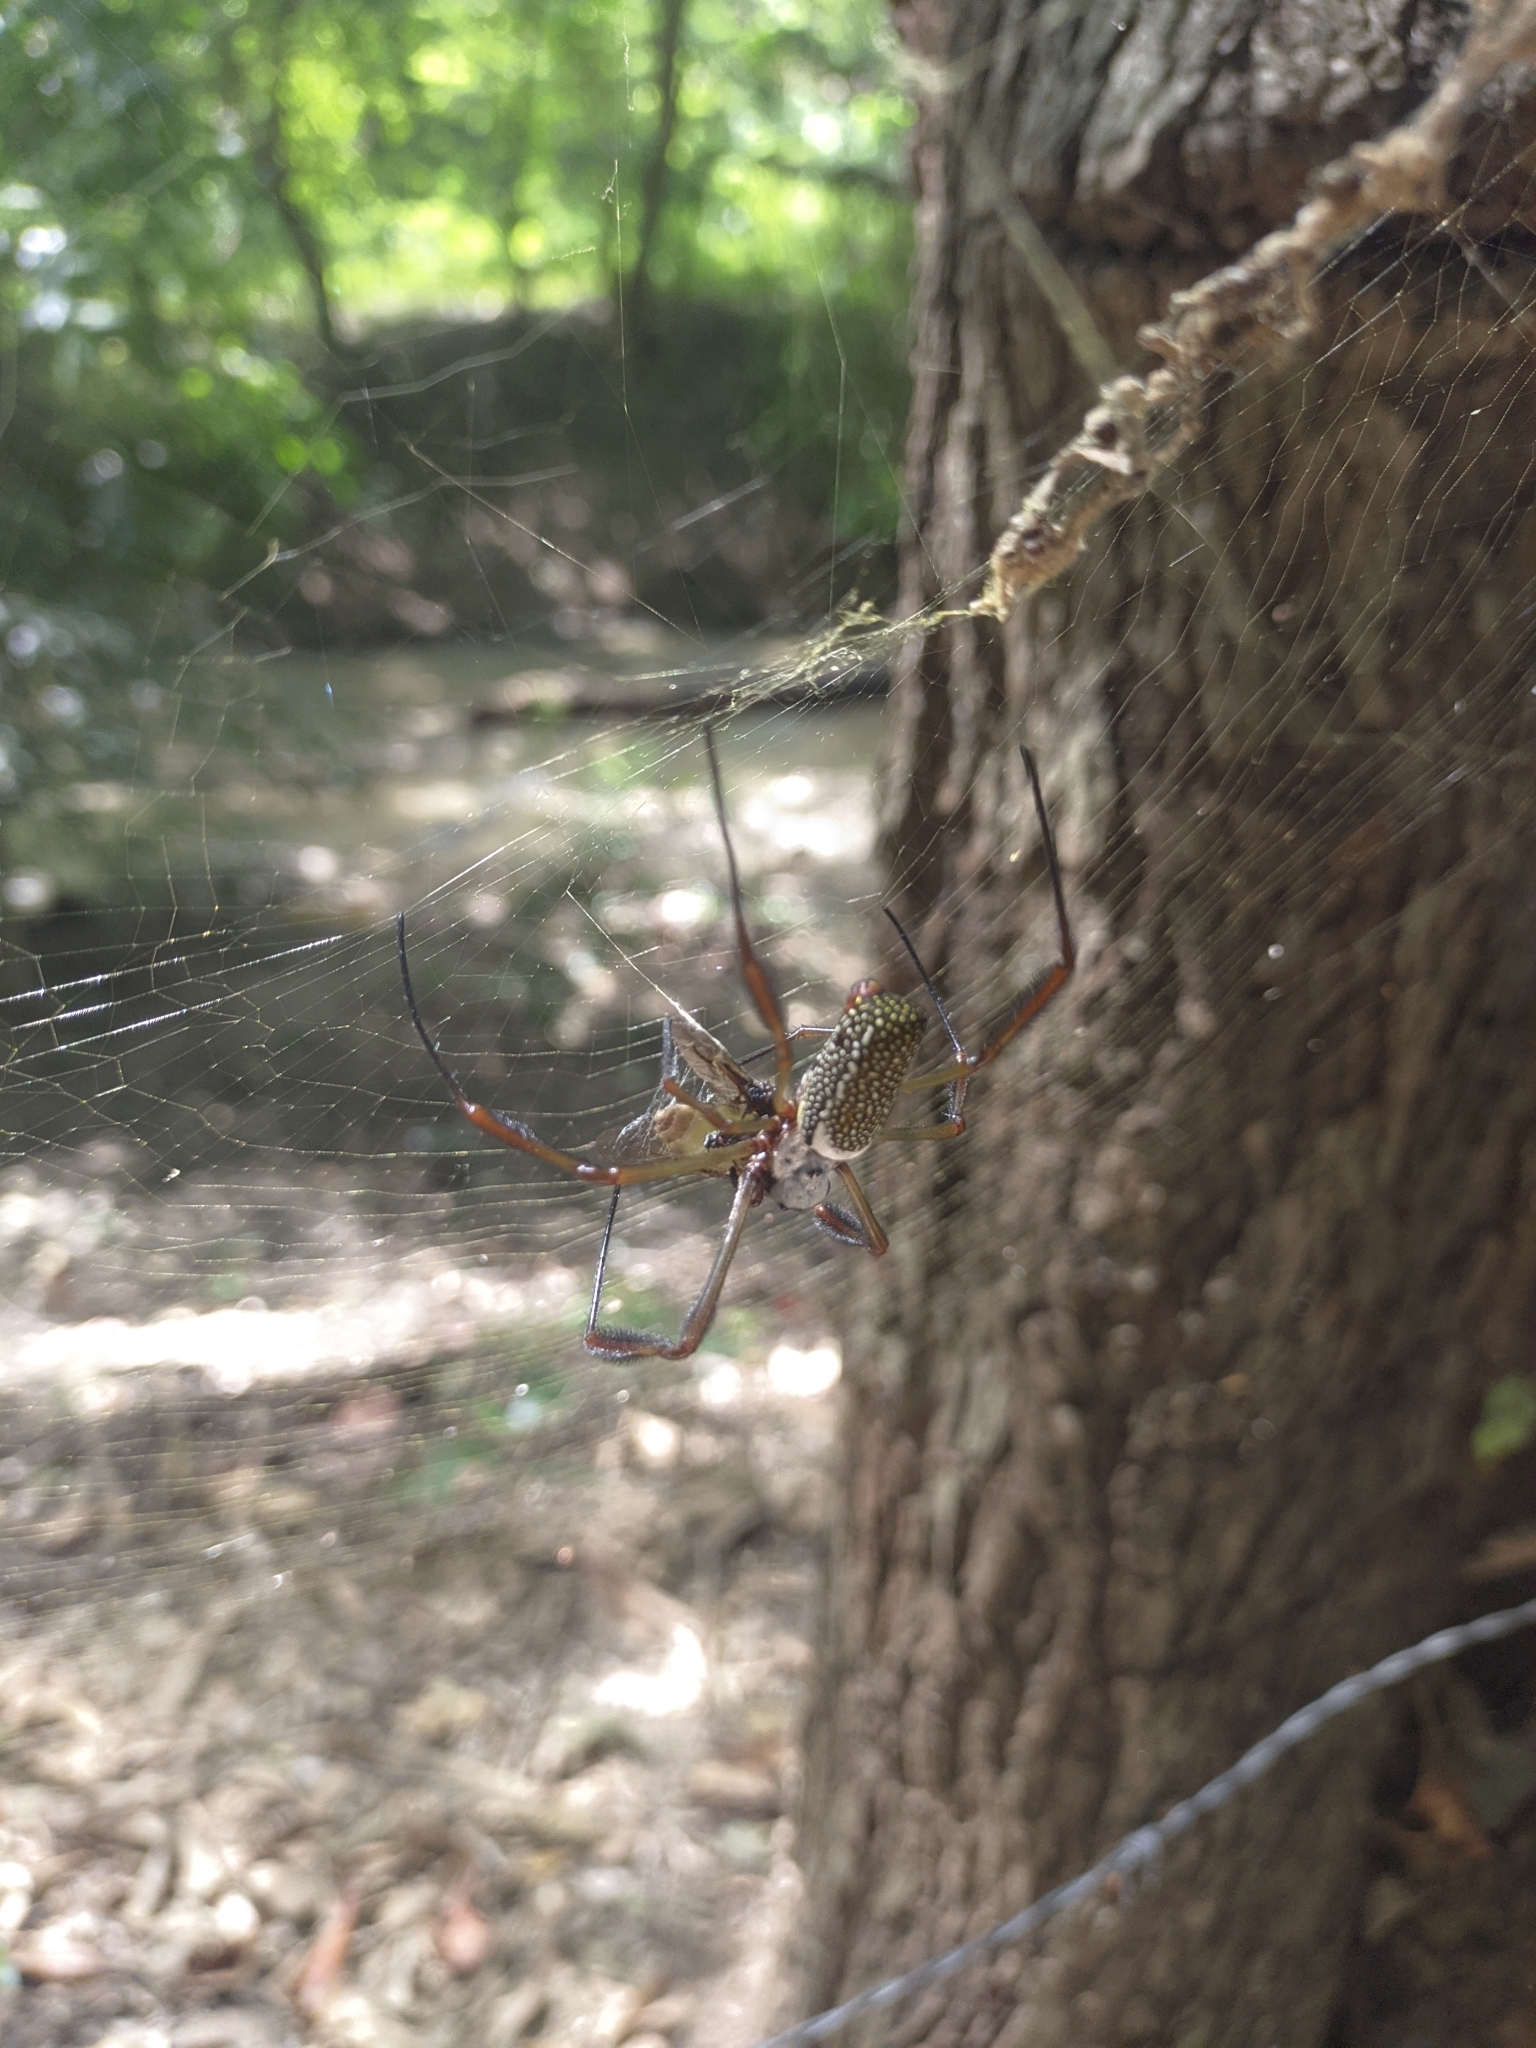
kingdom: Animalia
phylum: Arthropoda
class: Arachnida
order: Araneae
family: Araneidae
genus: Trichonephila
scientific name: Trichonephila clavipes
